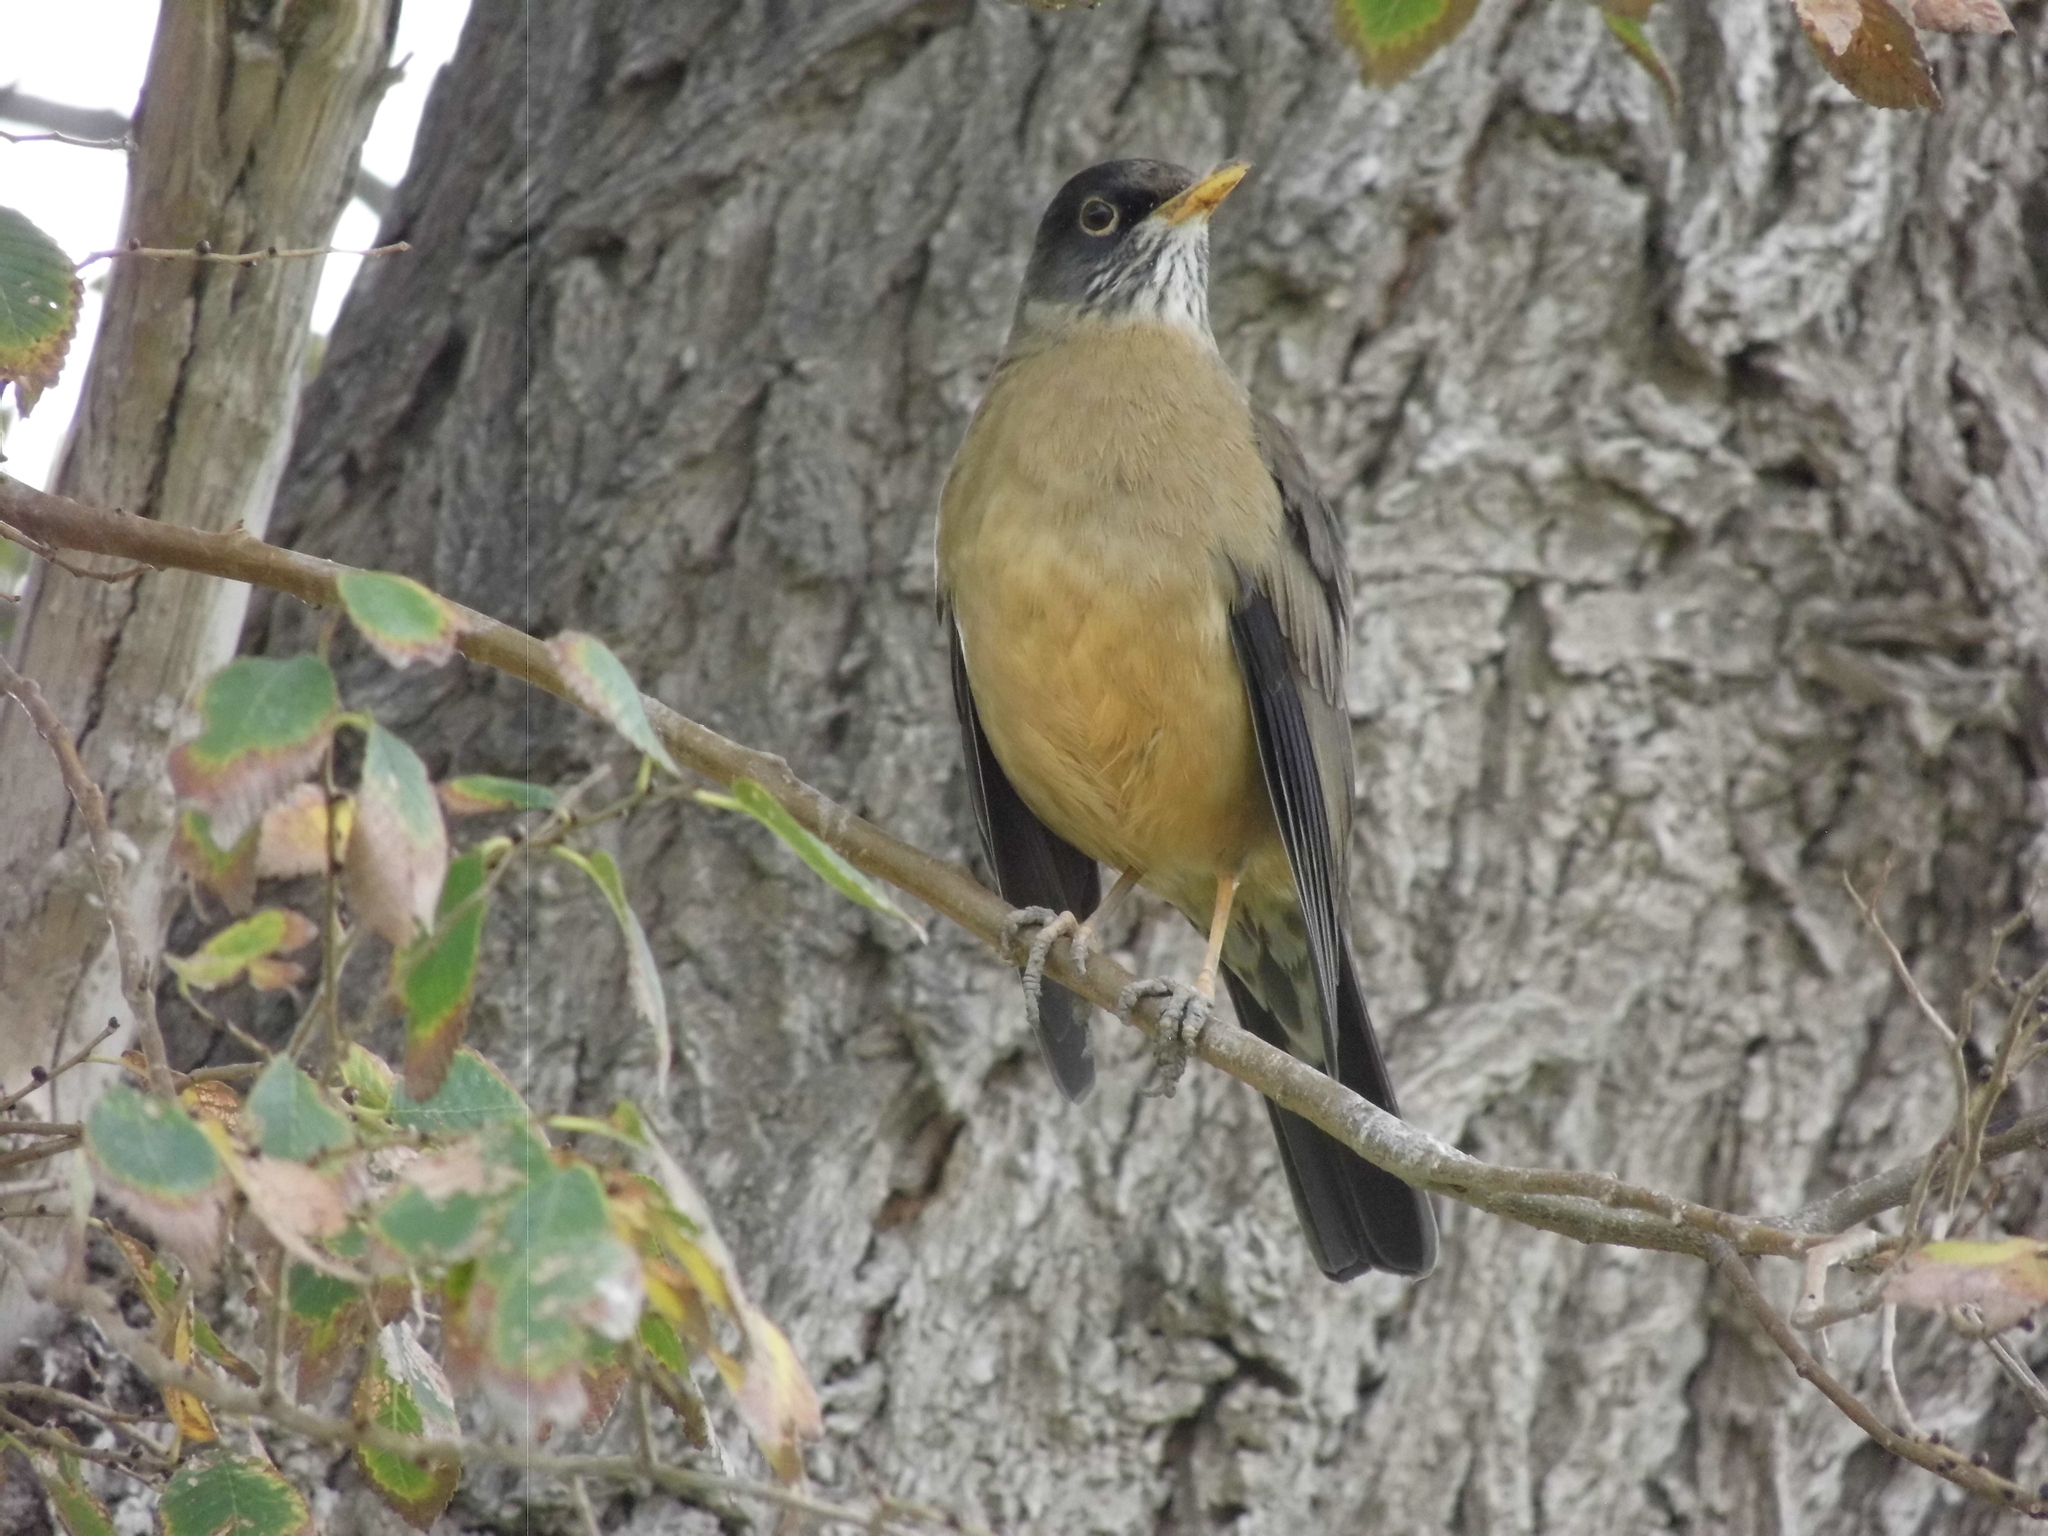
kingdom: Animalia
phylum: Chordata
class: Aves
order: Passeriformes
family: Turdidae
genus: Turdus
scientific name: Turdus falcklandii
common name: Austral thrush
